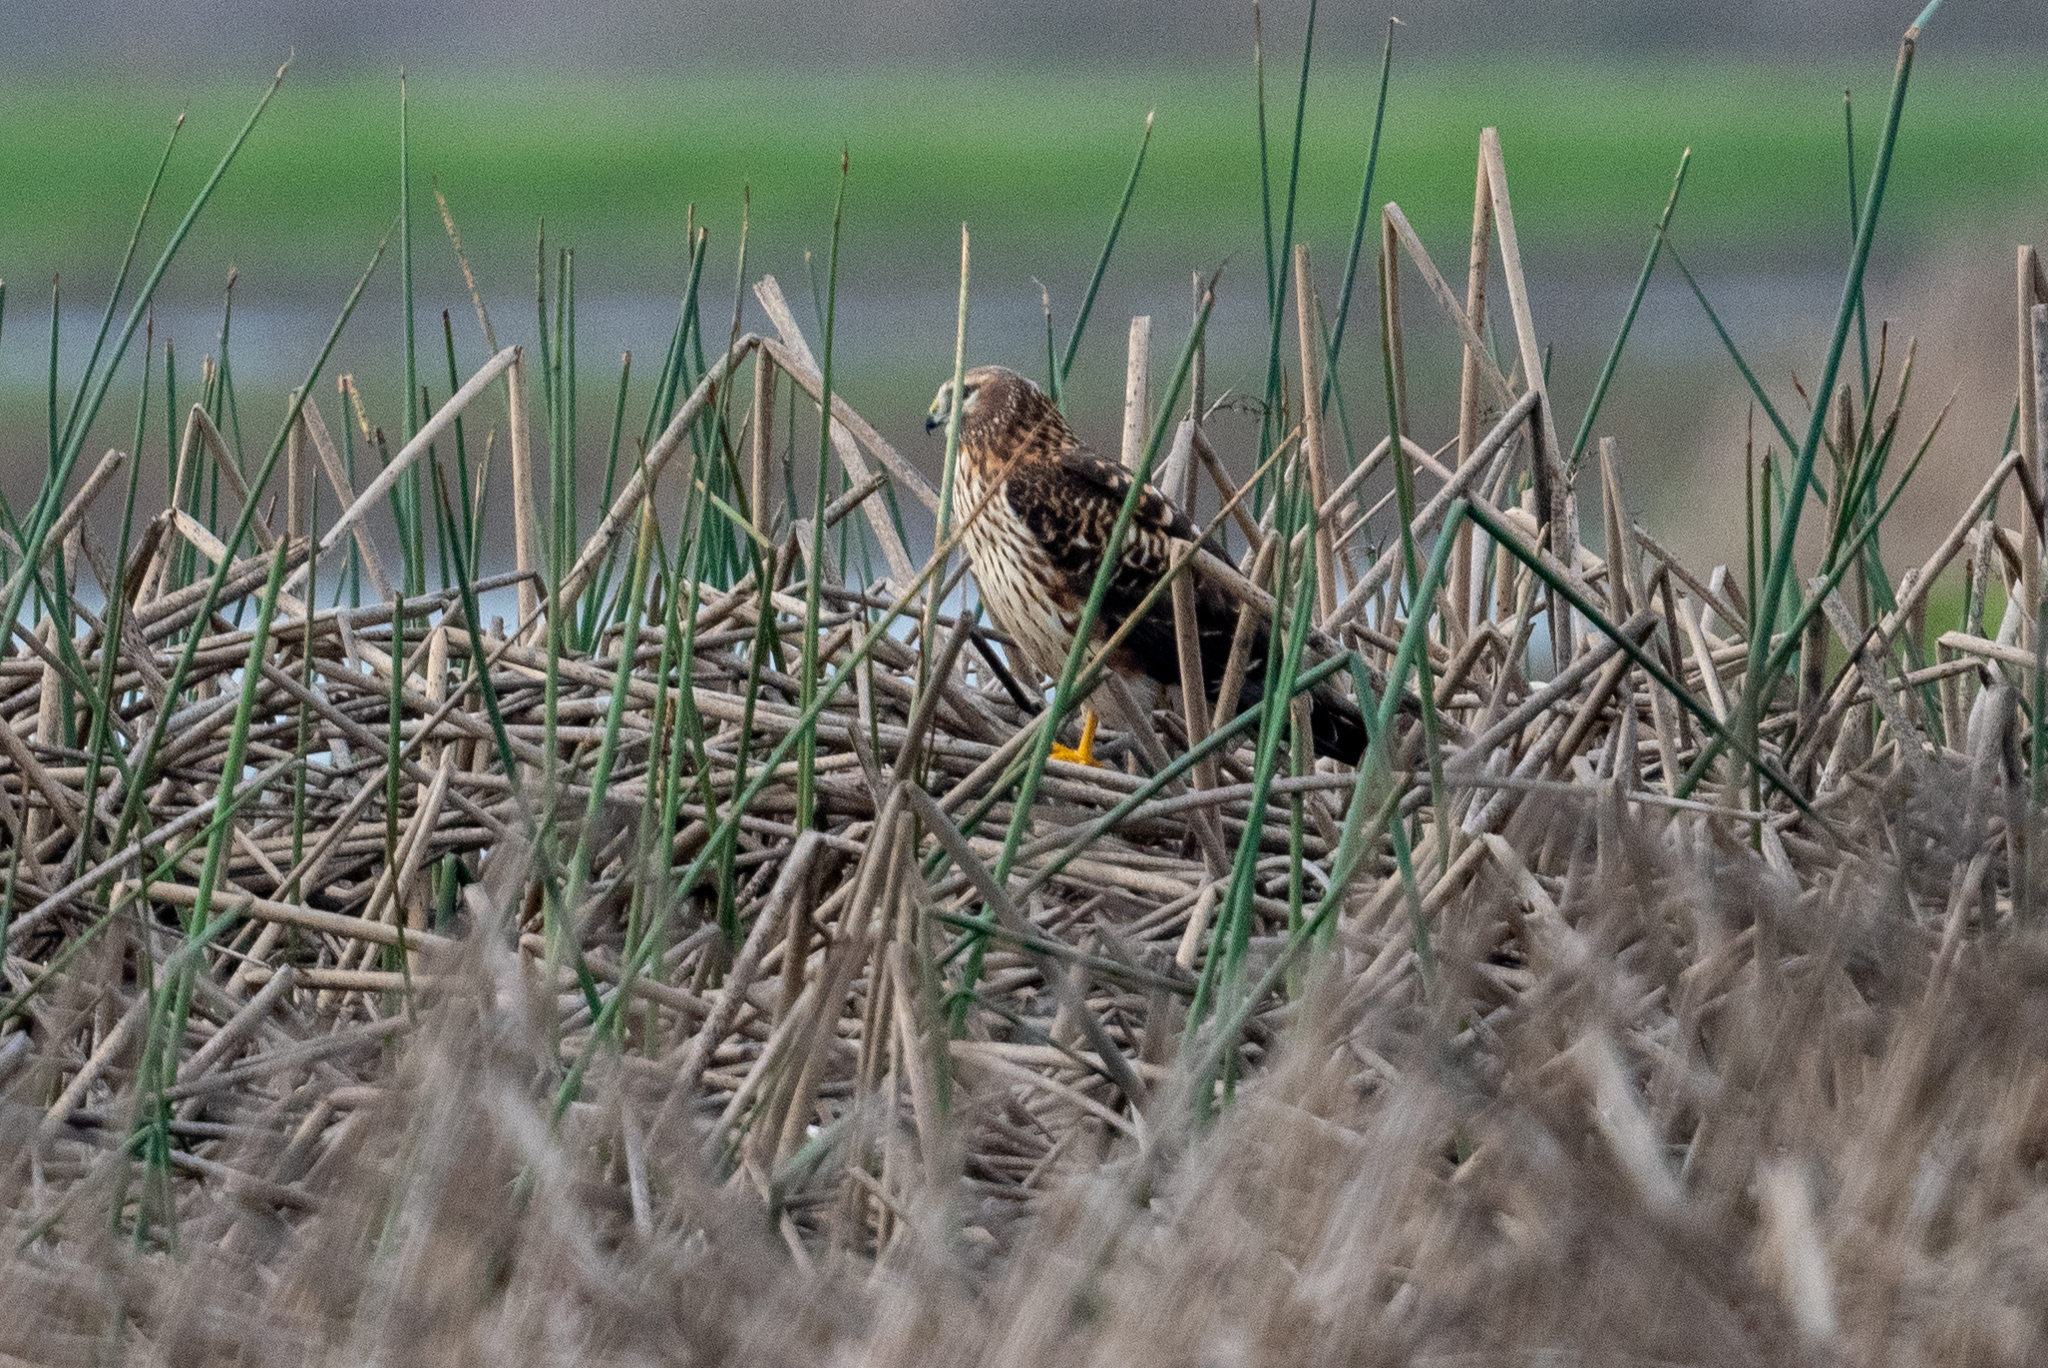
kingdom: Animalia
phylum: Chordata
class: Aves
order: Accipitriformes
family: Accipitridae
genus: Circus
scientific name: Circus cyaneus
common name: Hen harrier
